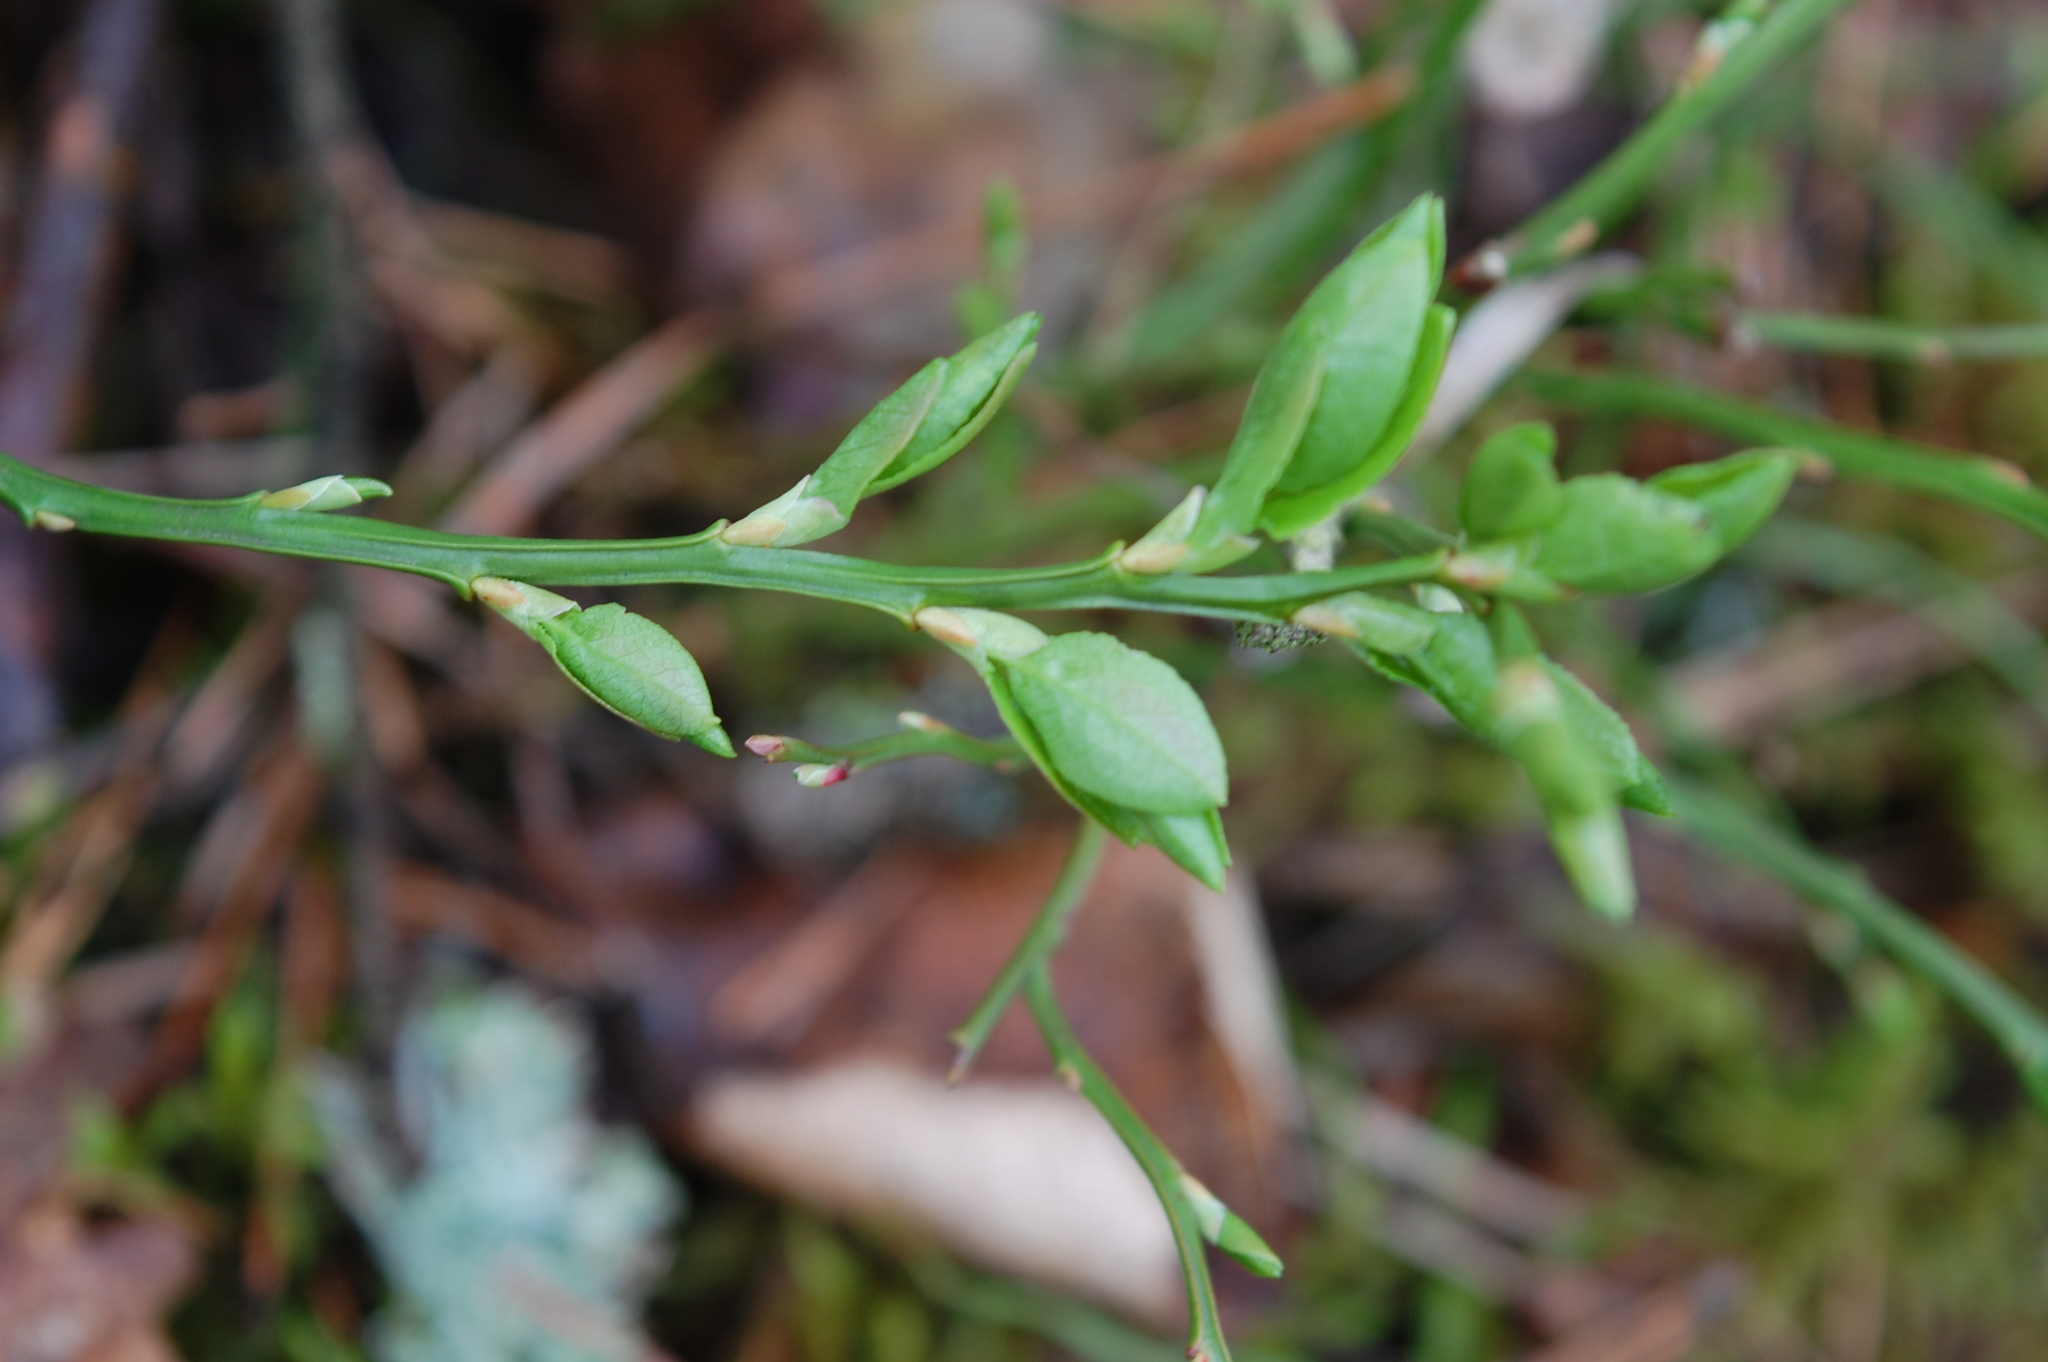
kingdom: Plantae
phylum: Tracheophyta
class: Magnoliopsida
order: Ericales
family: Ericaceae
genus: Vaccinium
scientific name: Vaccinium myrtillus
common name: Bilberry
